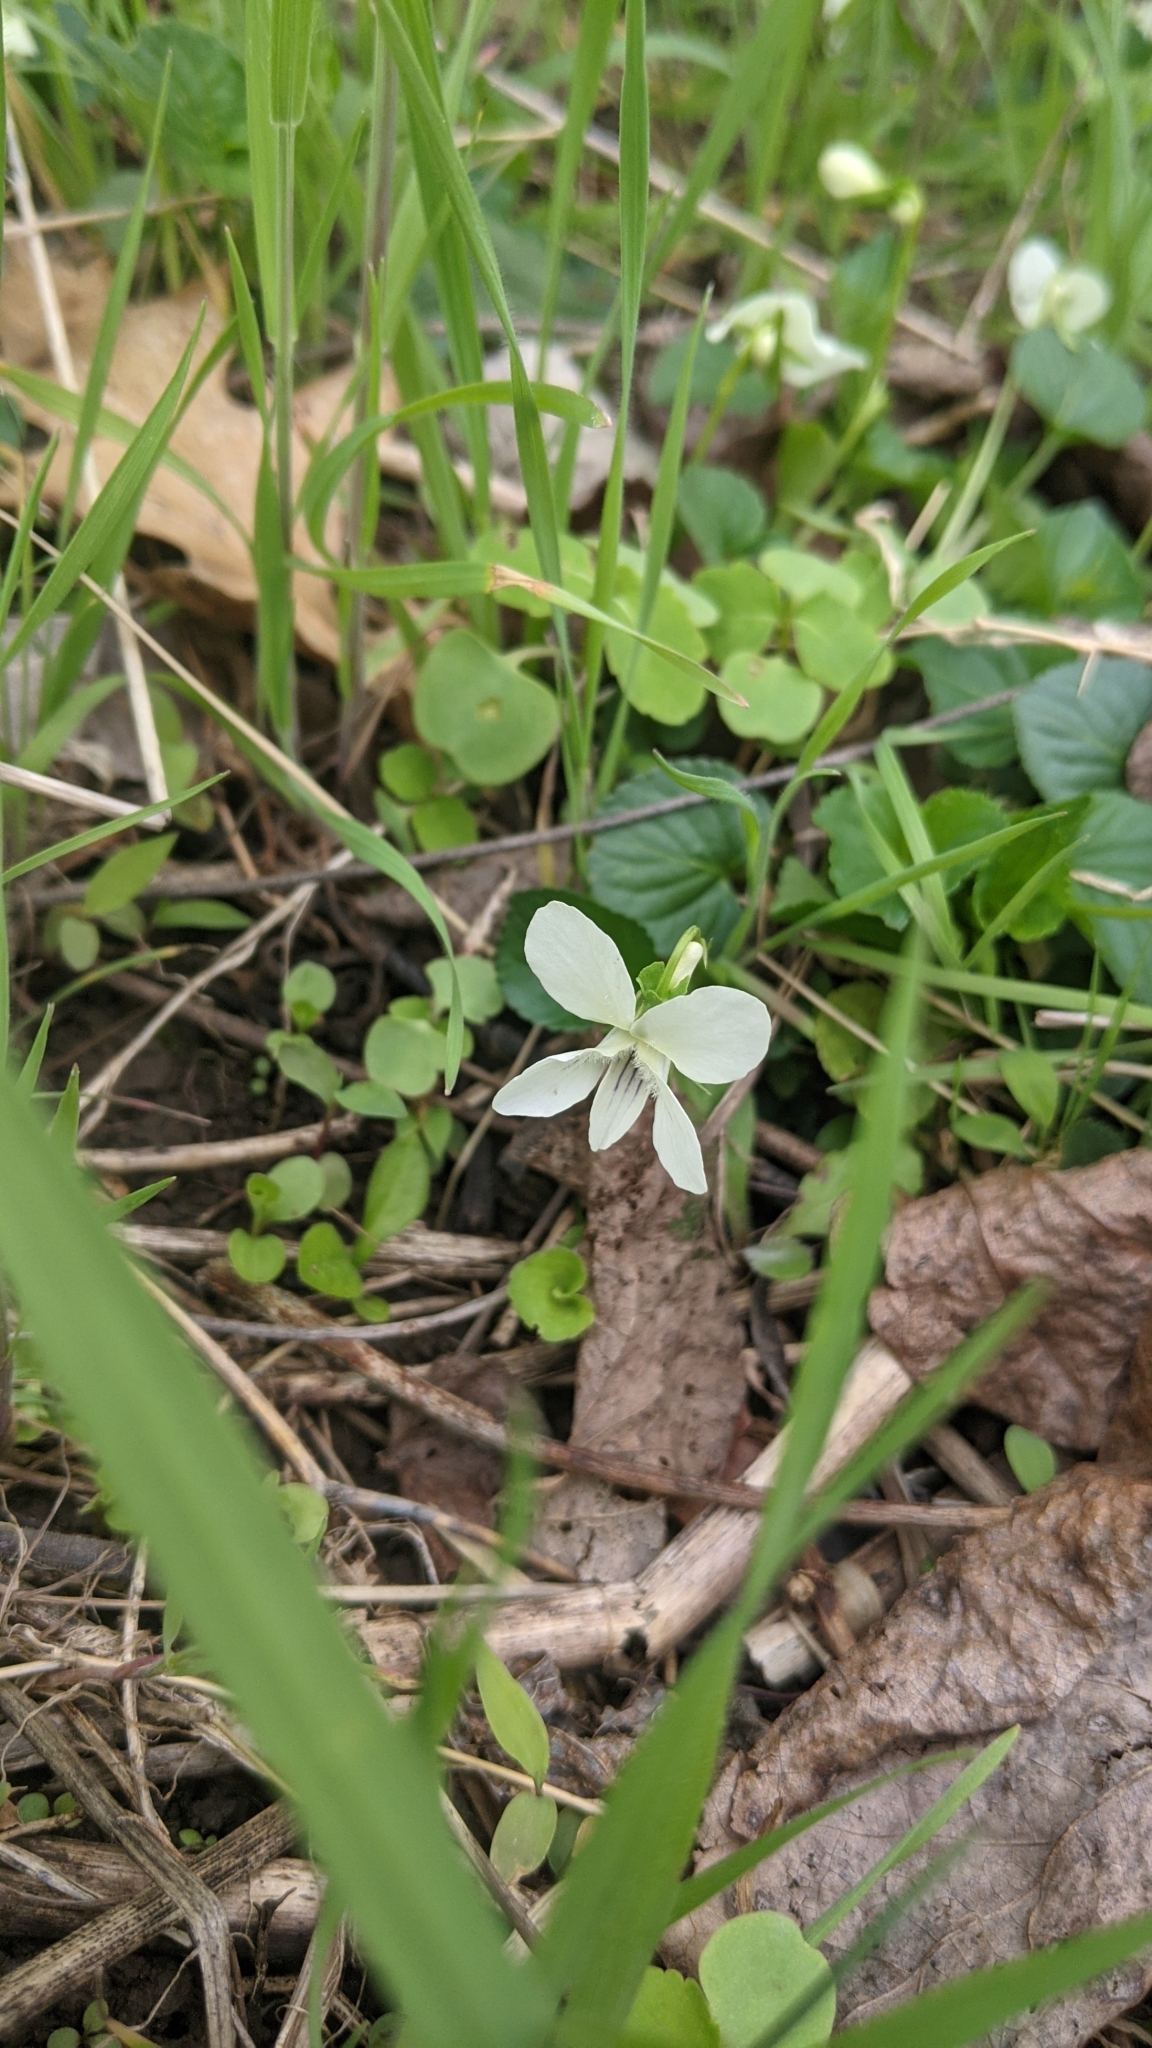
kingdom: Plantae
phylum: Tracheophyta
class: Magnoliopsida
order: Malpighiales
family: Violaceae
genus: Viola
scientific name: Viola striata
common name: Cream violet
